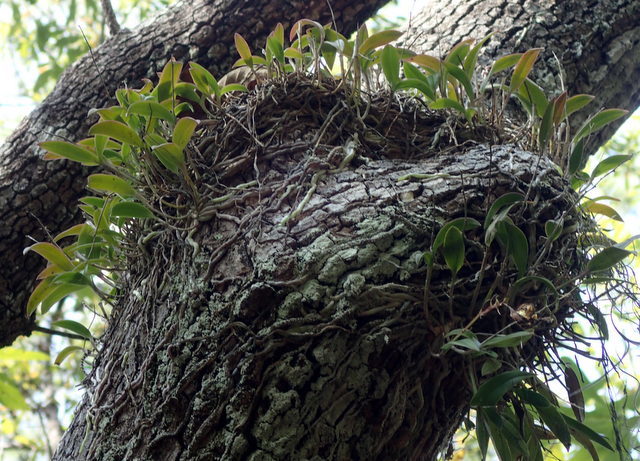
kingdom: Plantae
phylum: Tracheophyta
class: Liliopsida
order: Asparagales
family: Orchidaceae
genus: Epidendrum
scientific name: Epidendrum conopseum
